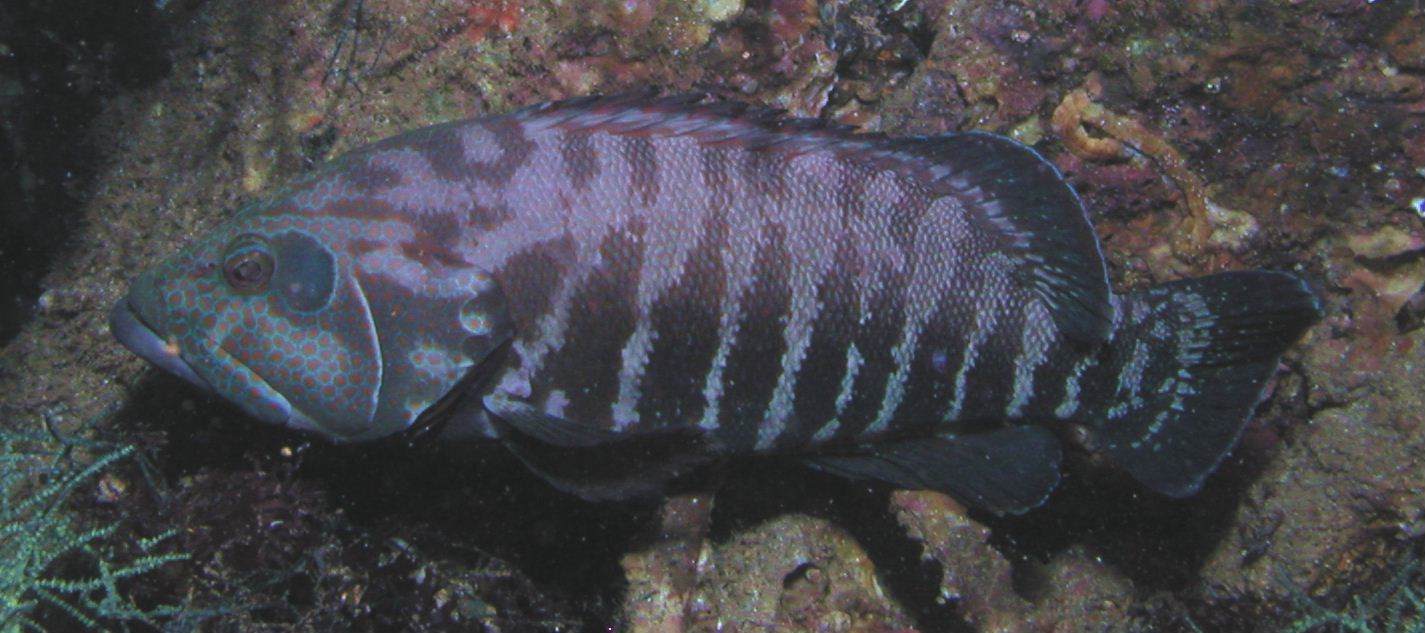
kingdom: Animalia
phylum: Chordata
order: Perciformes
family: Serranidae
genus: Cephalopholis
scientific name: Cephalopholis panamensis
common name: Pacific graysby
